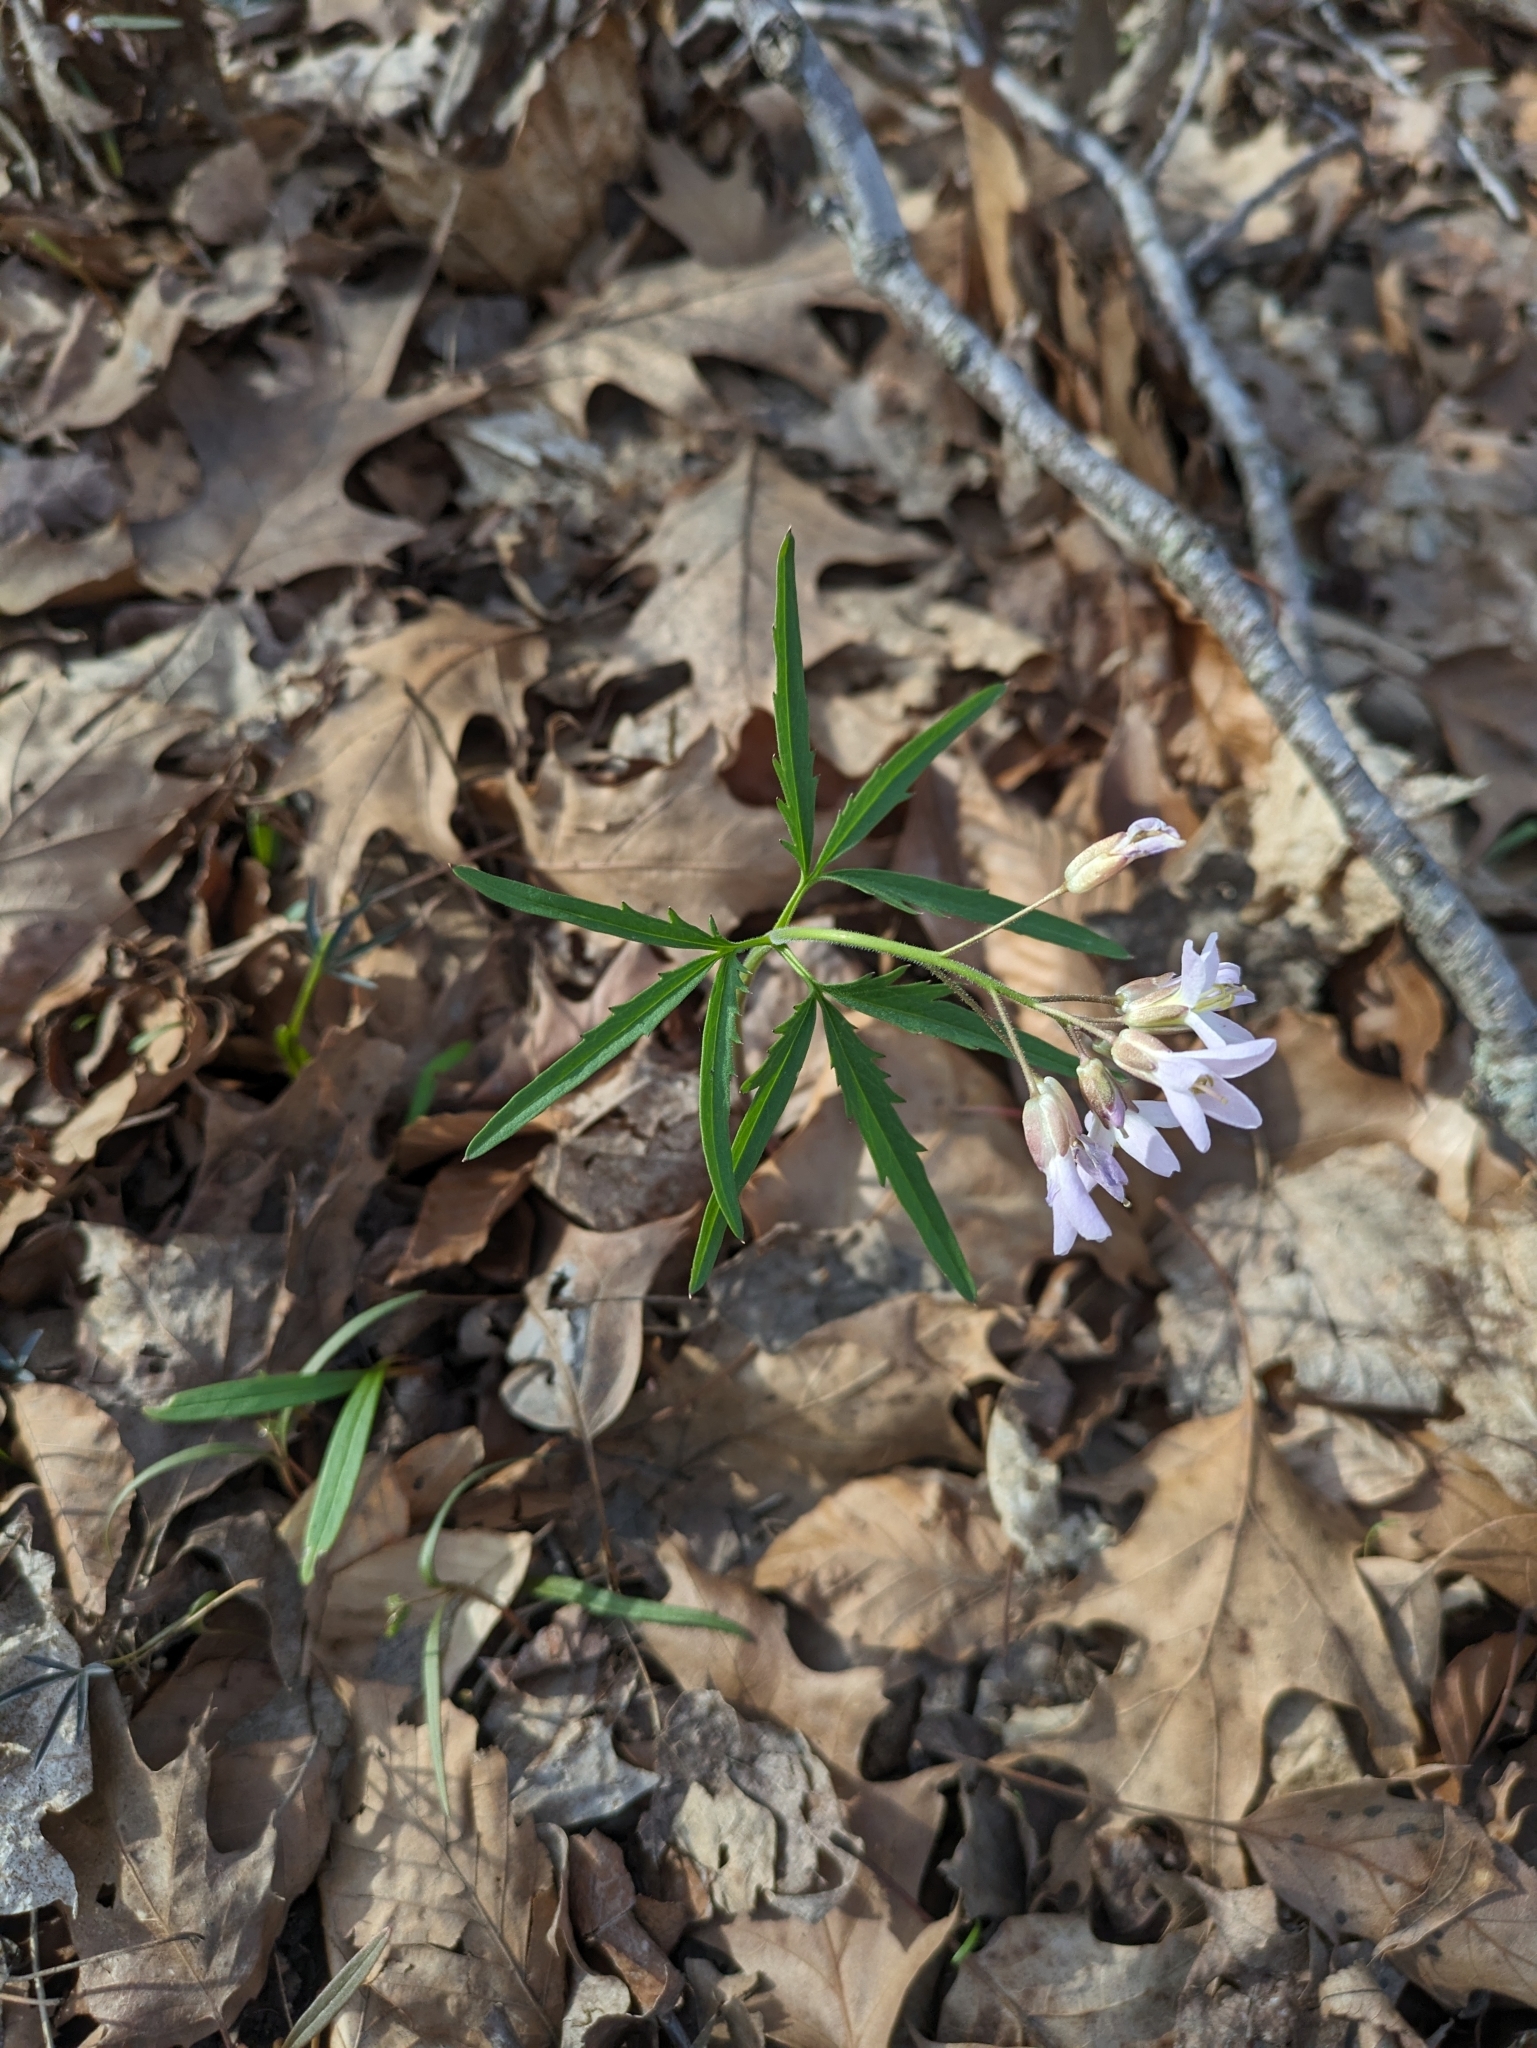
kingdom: Plantae
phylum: Tracheophyta
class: Magnoliopsida
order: Brassicales
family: Brassicaceae
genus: Cardamine
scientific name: Cardamine concatenata
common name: Cut-leaf toothcup
